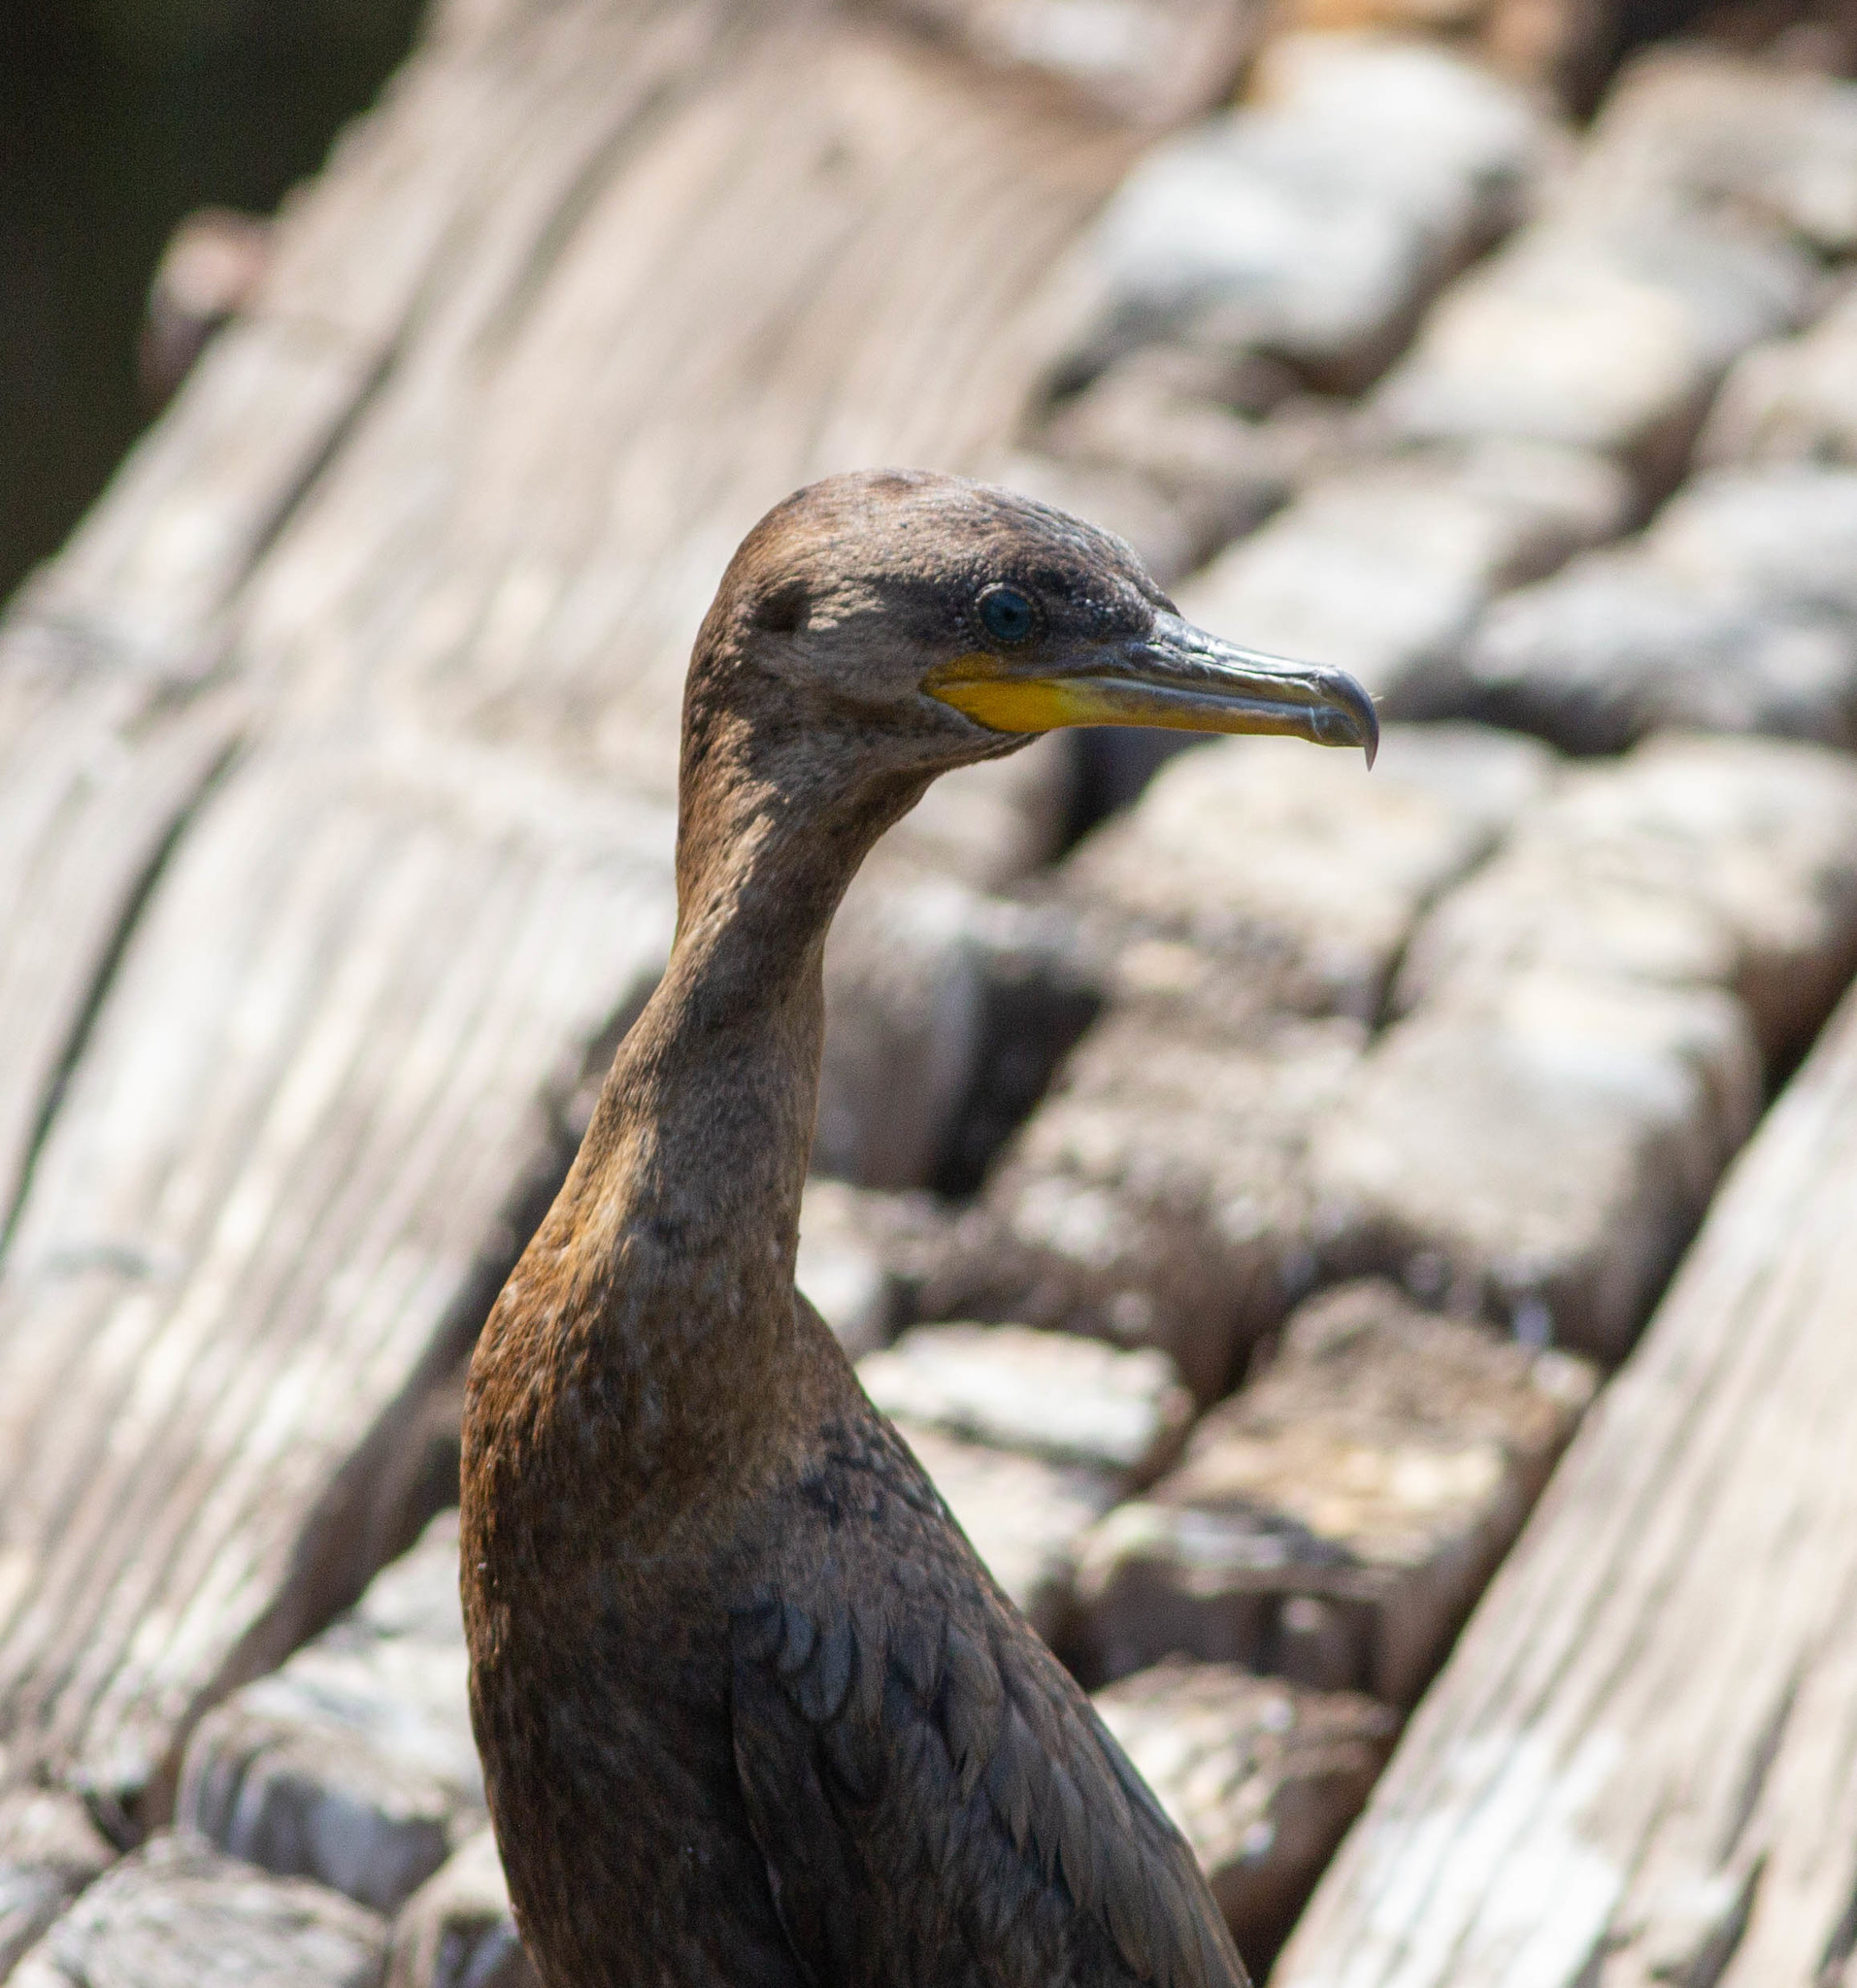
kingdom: Animalia
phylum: Chordata
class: Aves
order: Suliformes
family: Phalacrocoracidae
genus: Phalacrocorax
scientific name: Phalacrocorax brasilianus
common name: Neotropic cormorant
